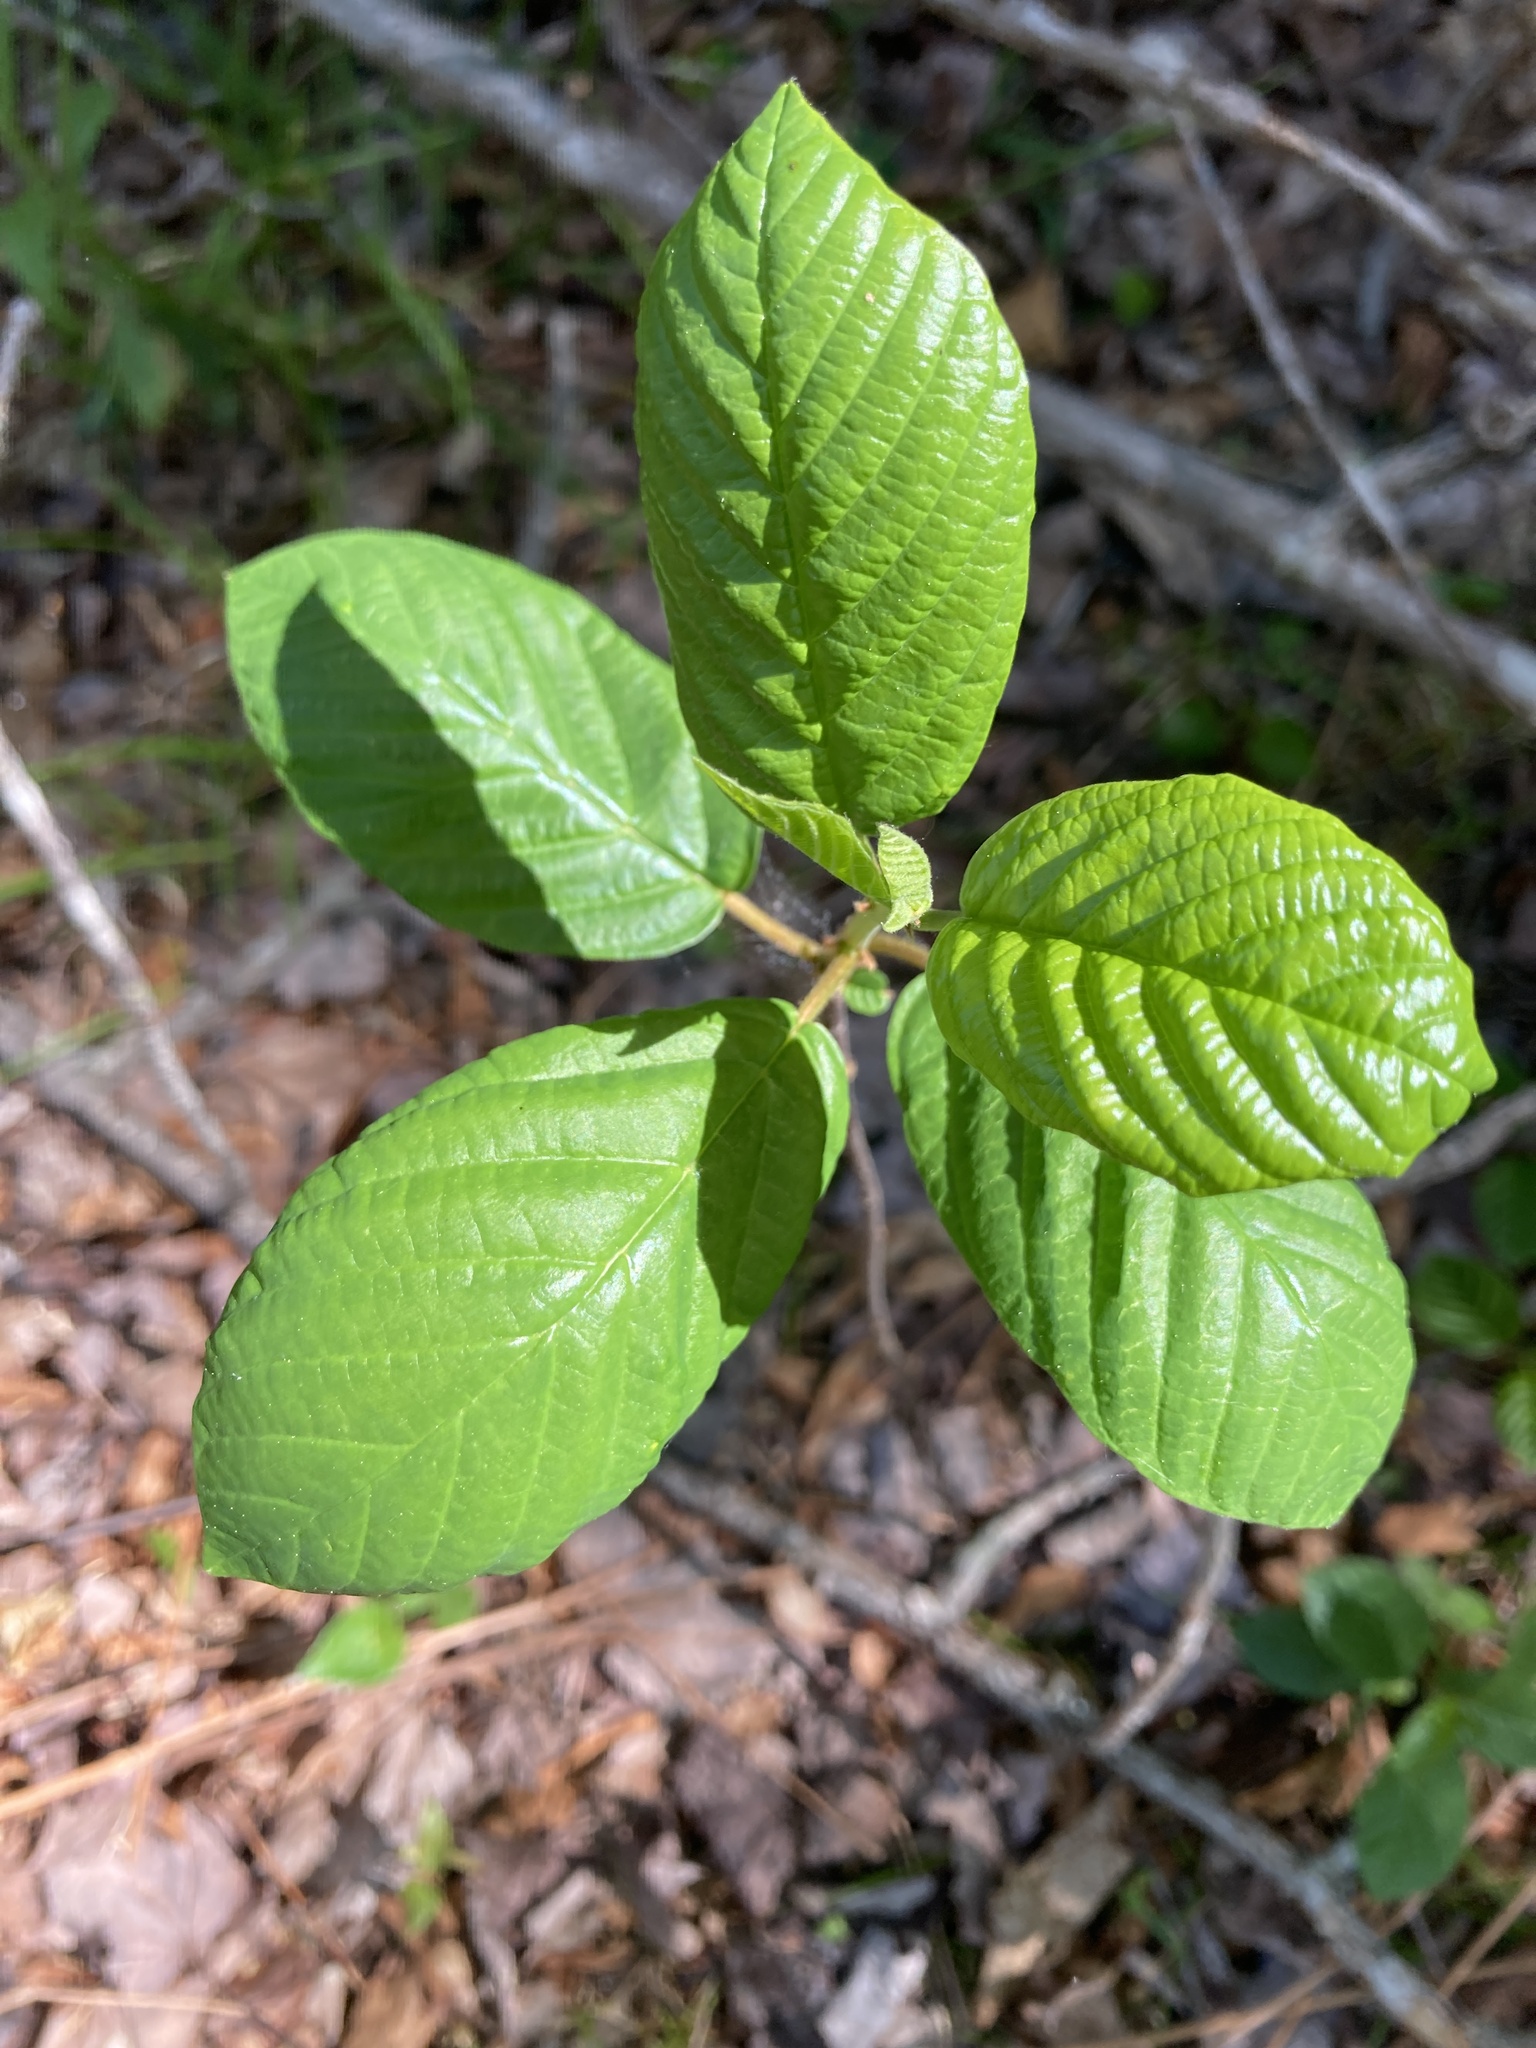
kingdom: Plantae
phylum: Tracheophyta
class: Magnoliopsida
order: Rosales
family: Rhamnaceae
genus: Frangula
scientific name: Frangula alnus
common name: Alder buckthorn
